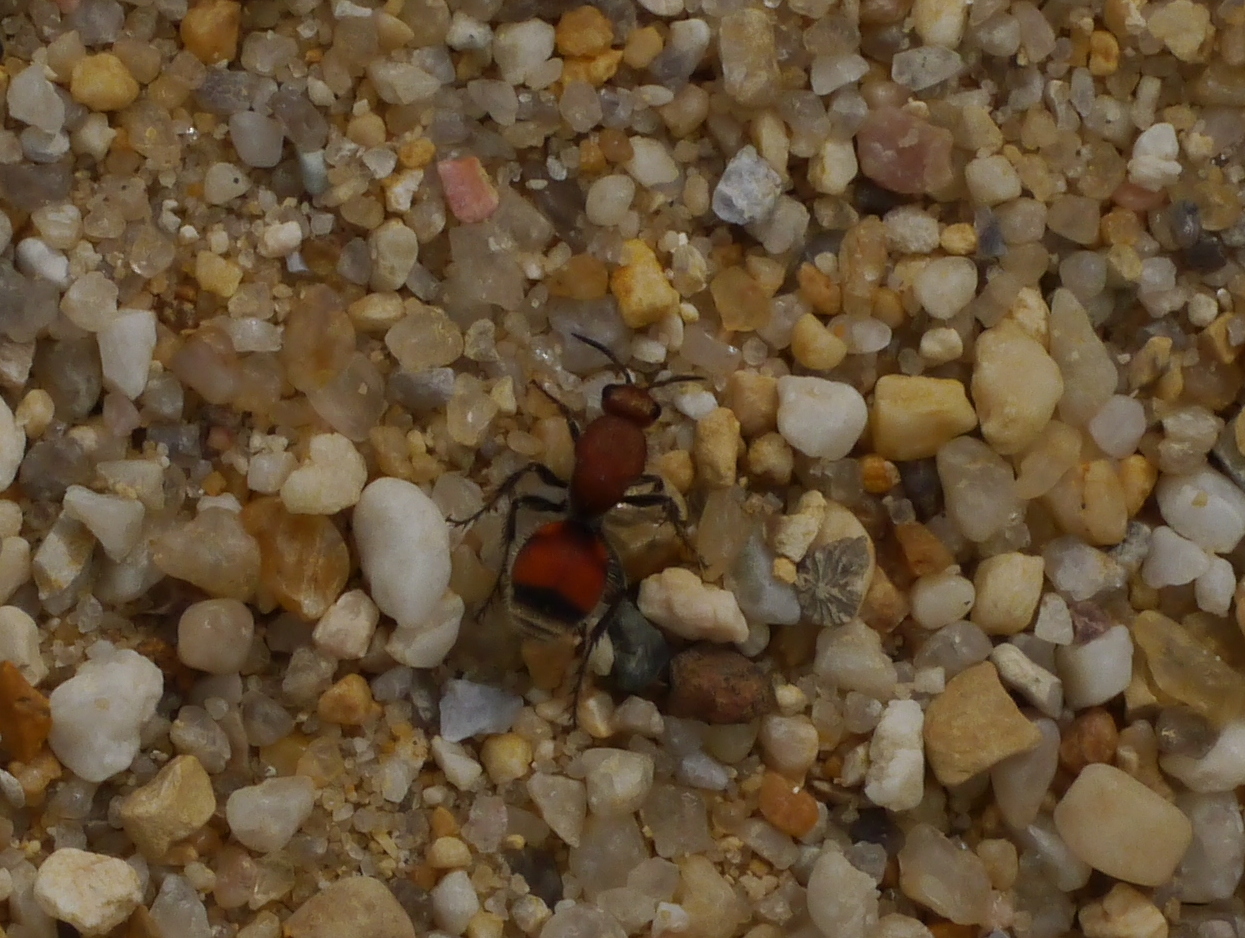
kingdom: Animalia
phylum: Arthropoda
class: Insecta
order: Hymenoptera
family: Mutillidae
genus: Dasymutilla
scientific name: Dasymutilla
